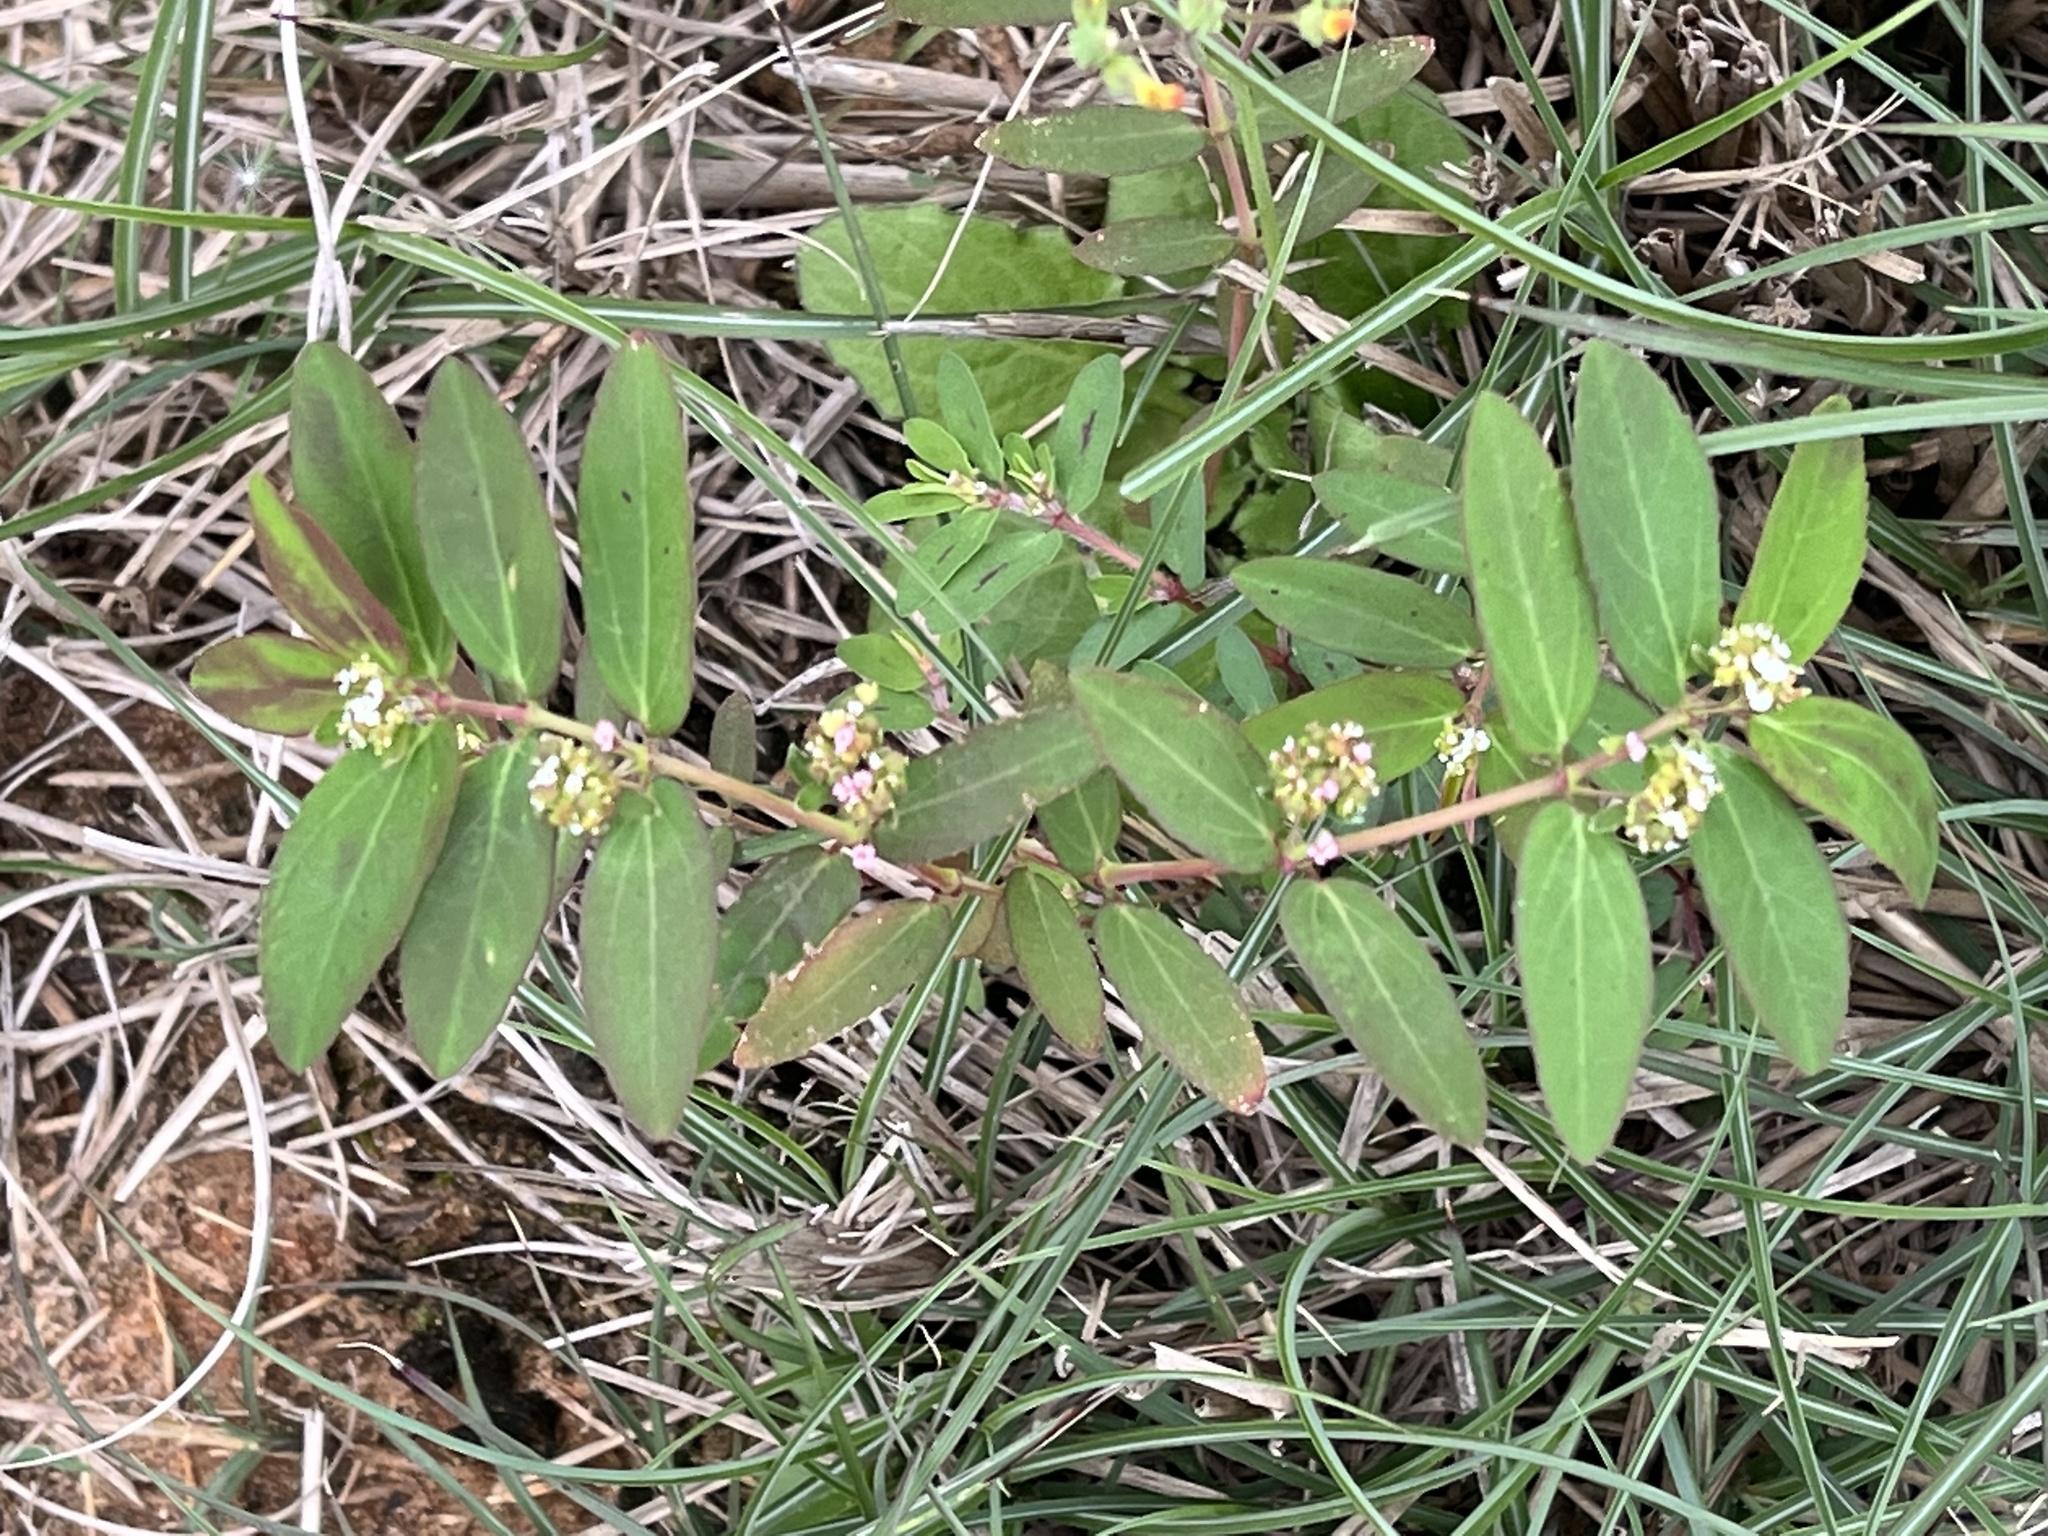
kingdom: Plantae
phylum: Tracheophyta
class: Magnoliopsida
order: Malpighiales
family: Euphorbiaceae
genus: Euphorbia
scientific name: Euphorbia hypericifolia
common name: Graceful sandmat
